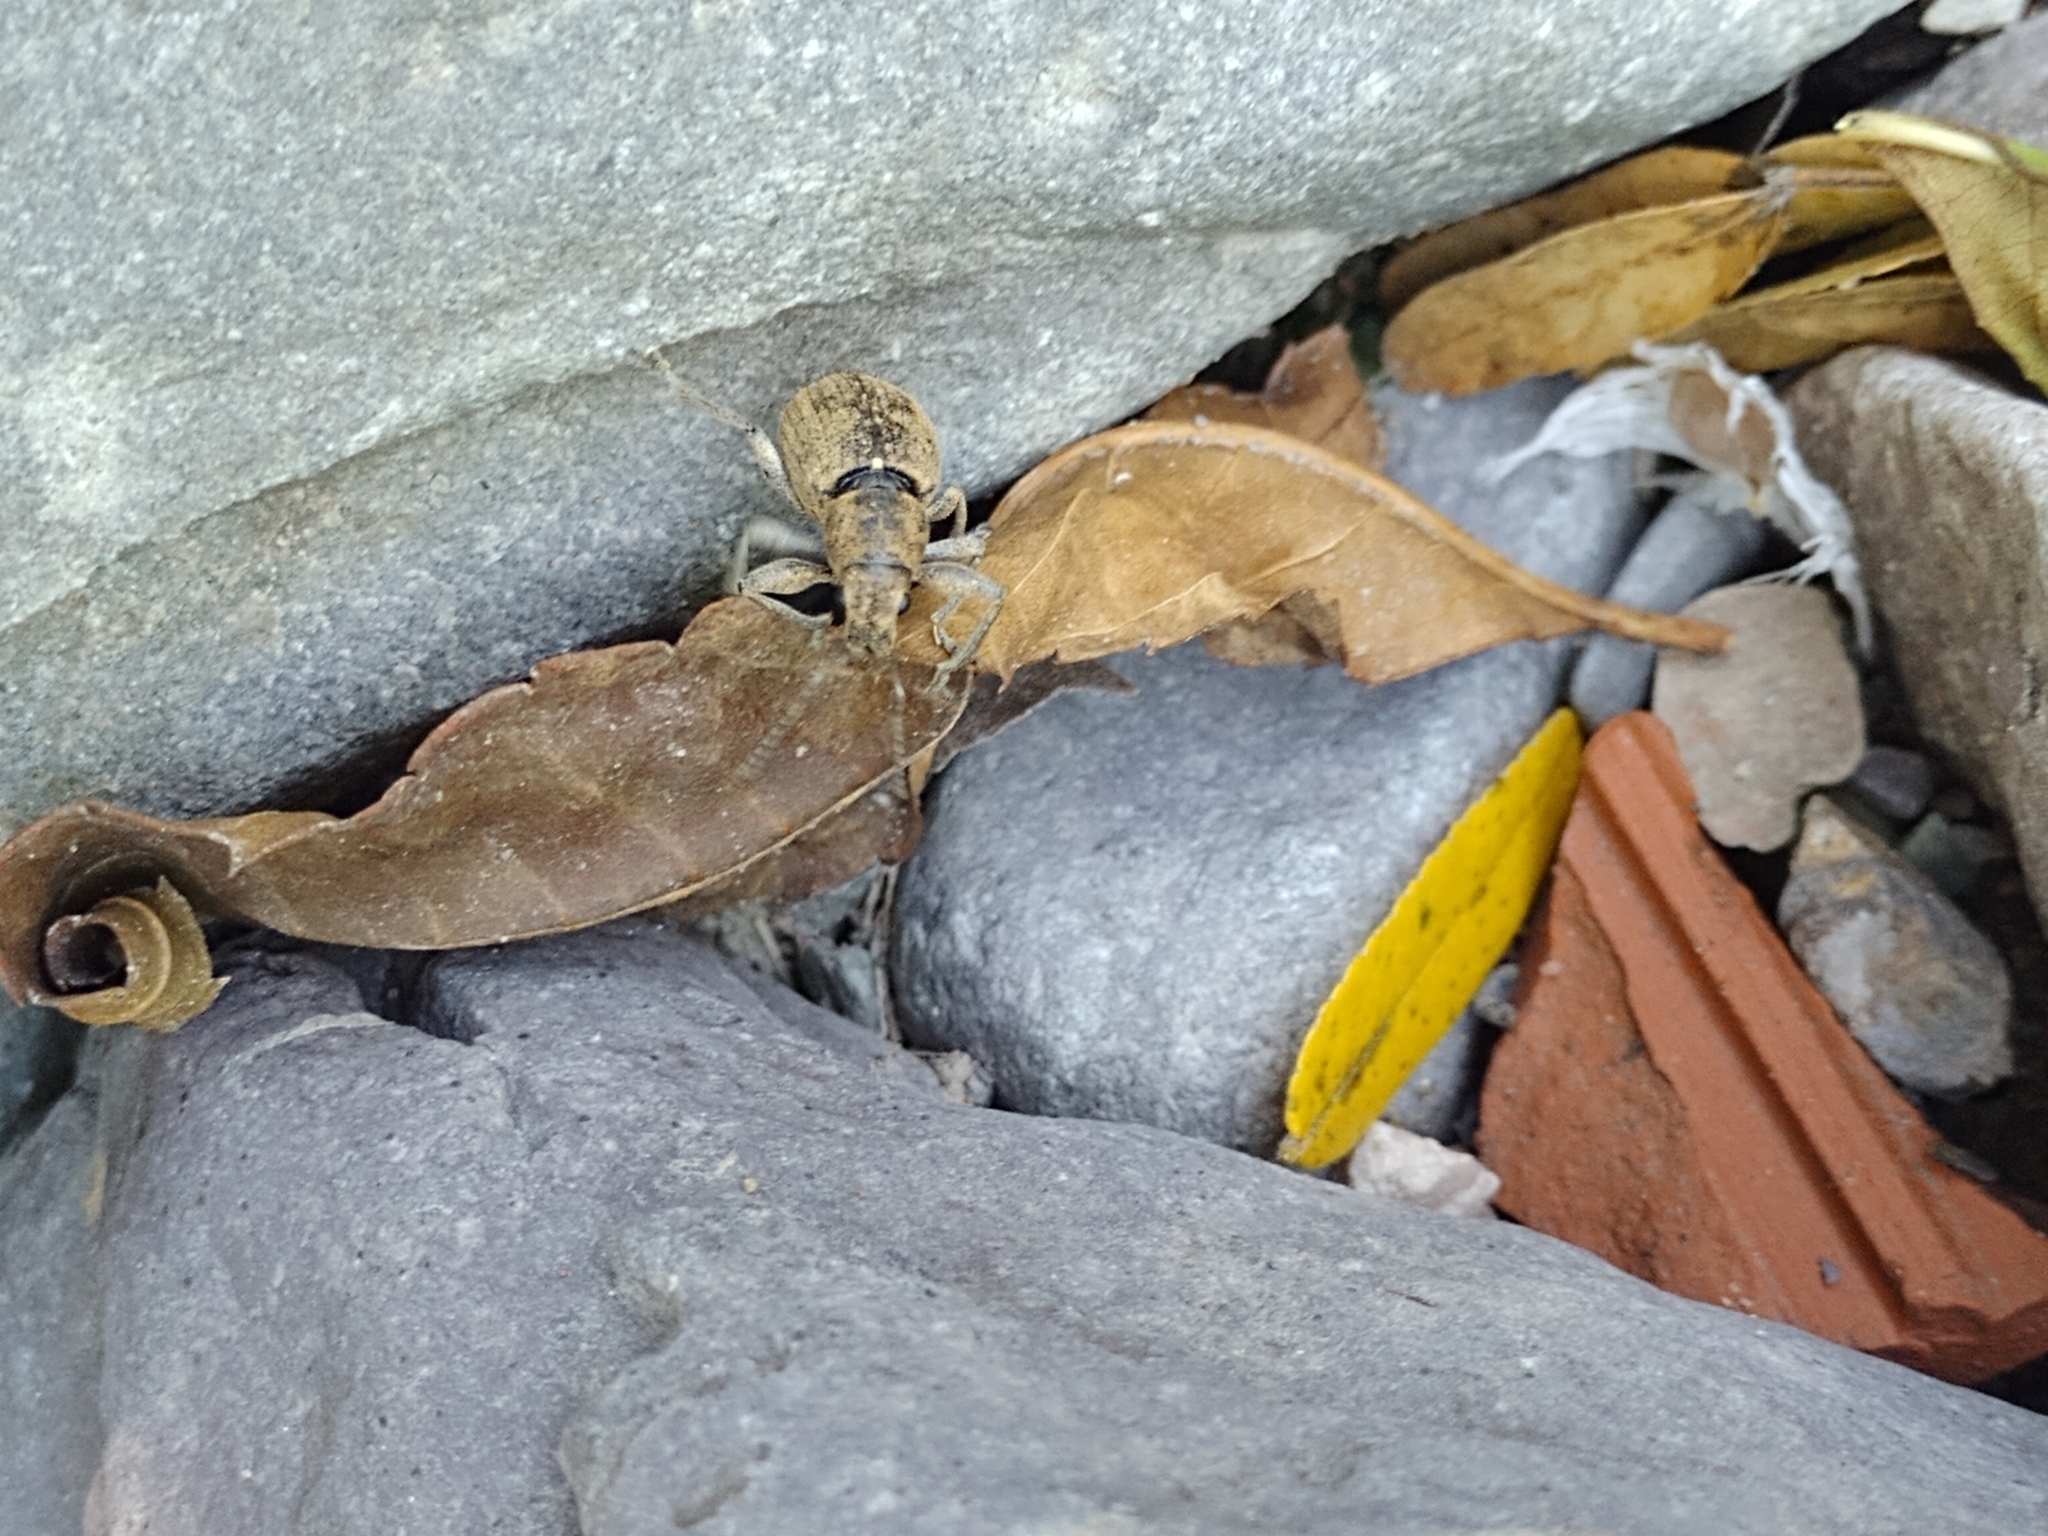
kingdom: Animalia
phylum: Arthropoda
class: Insecta
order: Coleoptera
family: Curculionidae
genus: Naupactus
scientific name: Naupactus versatilis
